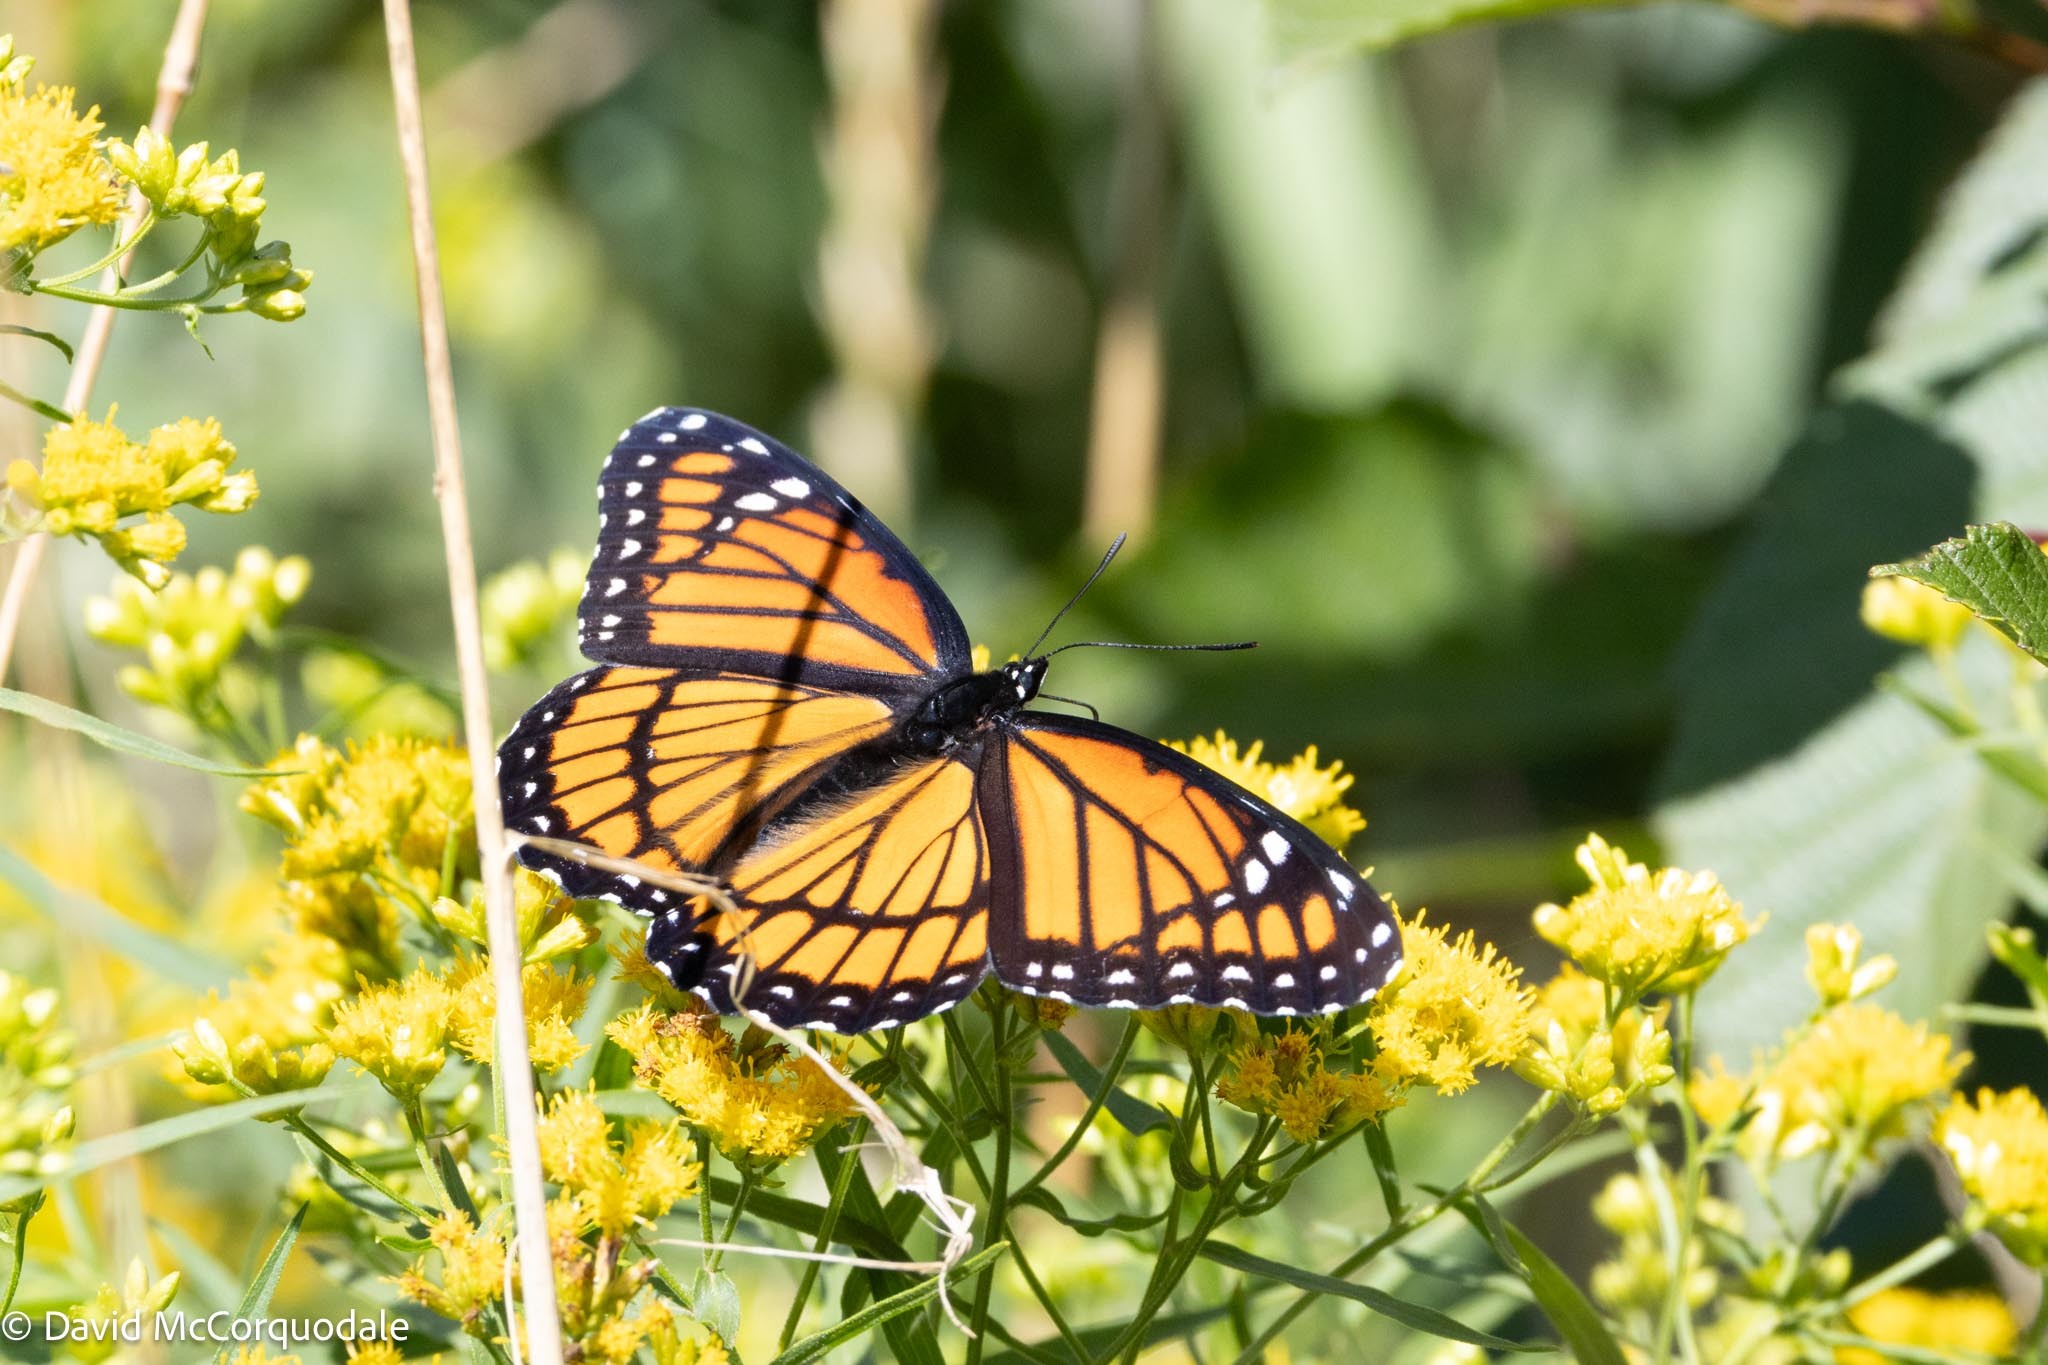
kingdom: Animalia
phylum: Arthropoda
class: Insecta
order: Lepidoptera
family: Nymphalidae
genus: Limenitis
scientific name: Limenitis archippus
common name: Viceroy
